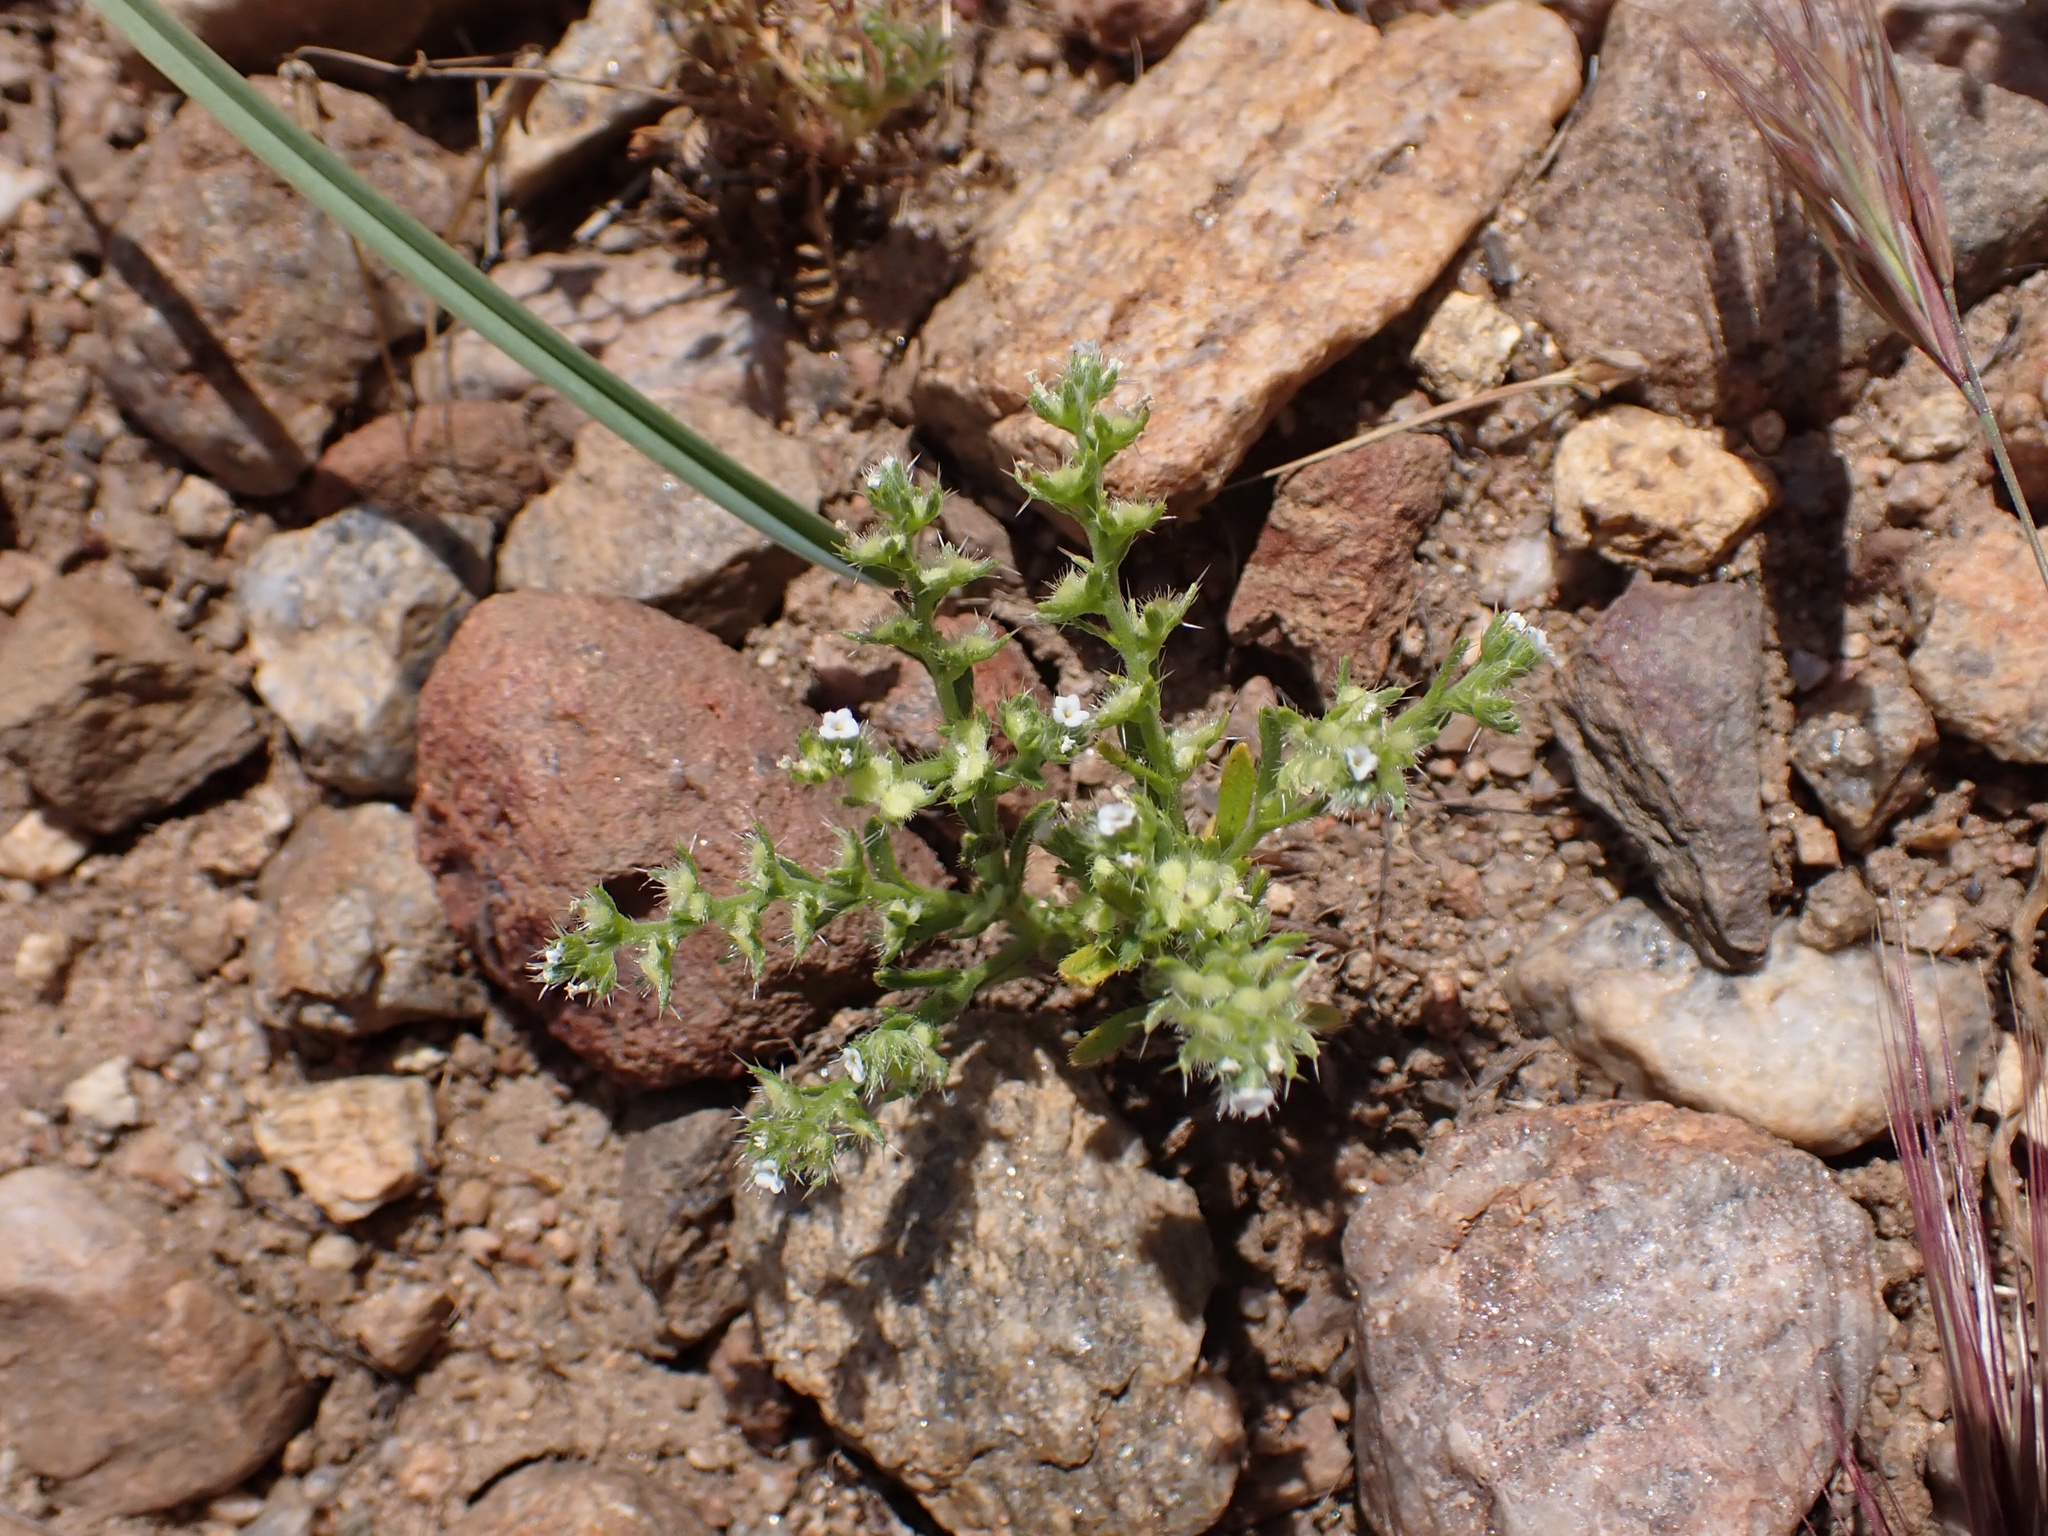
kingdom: Plantae
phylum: Tracheophyta
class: Magnoliopsida
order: Boraginales
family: Boraginaceae
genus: Pectocarya
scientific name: Pectocarya setosa
